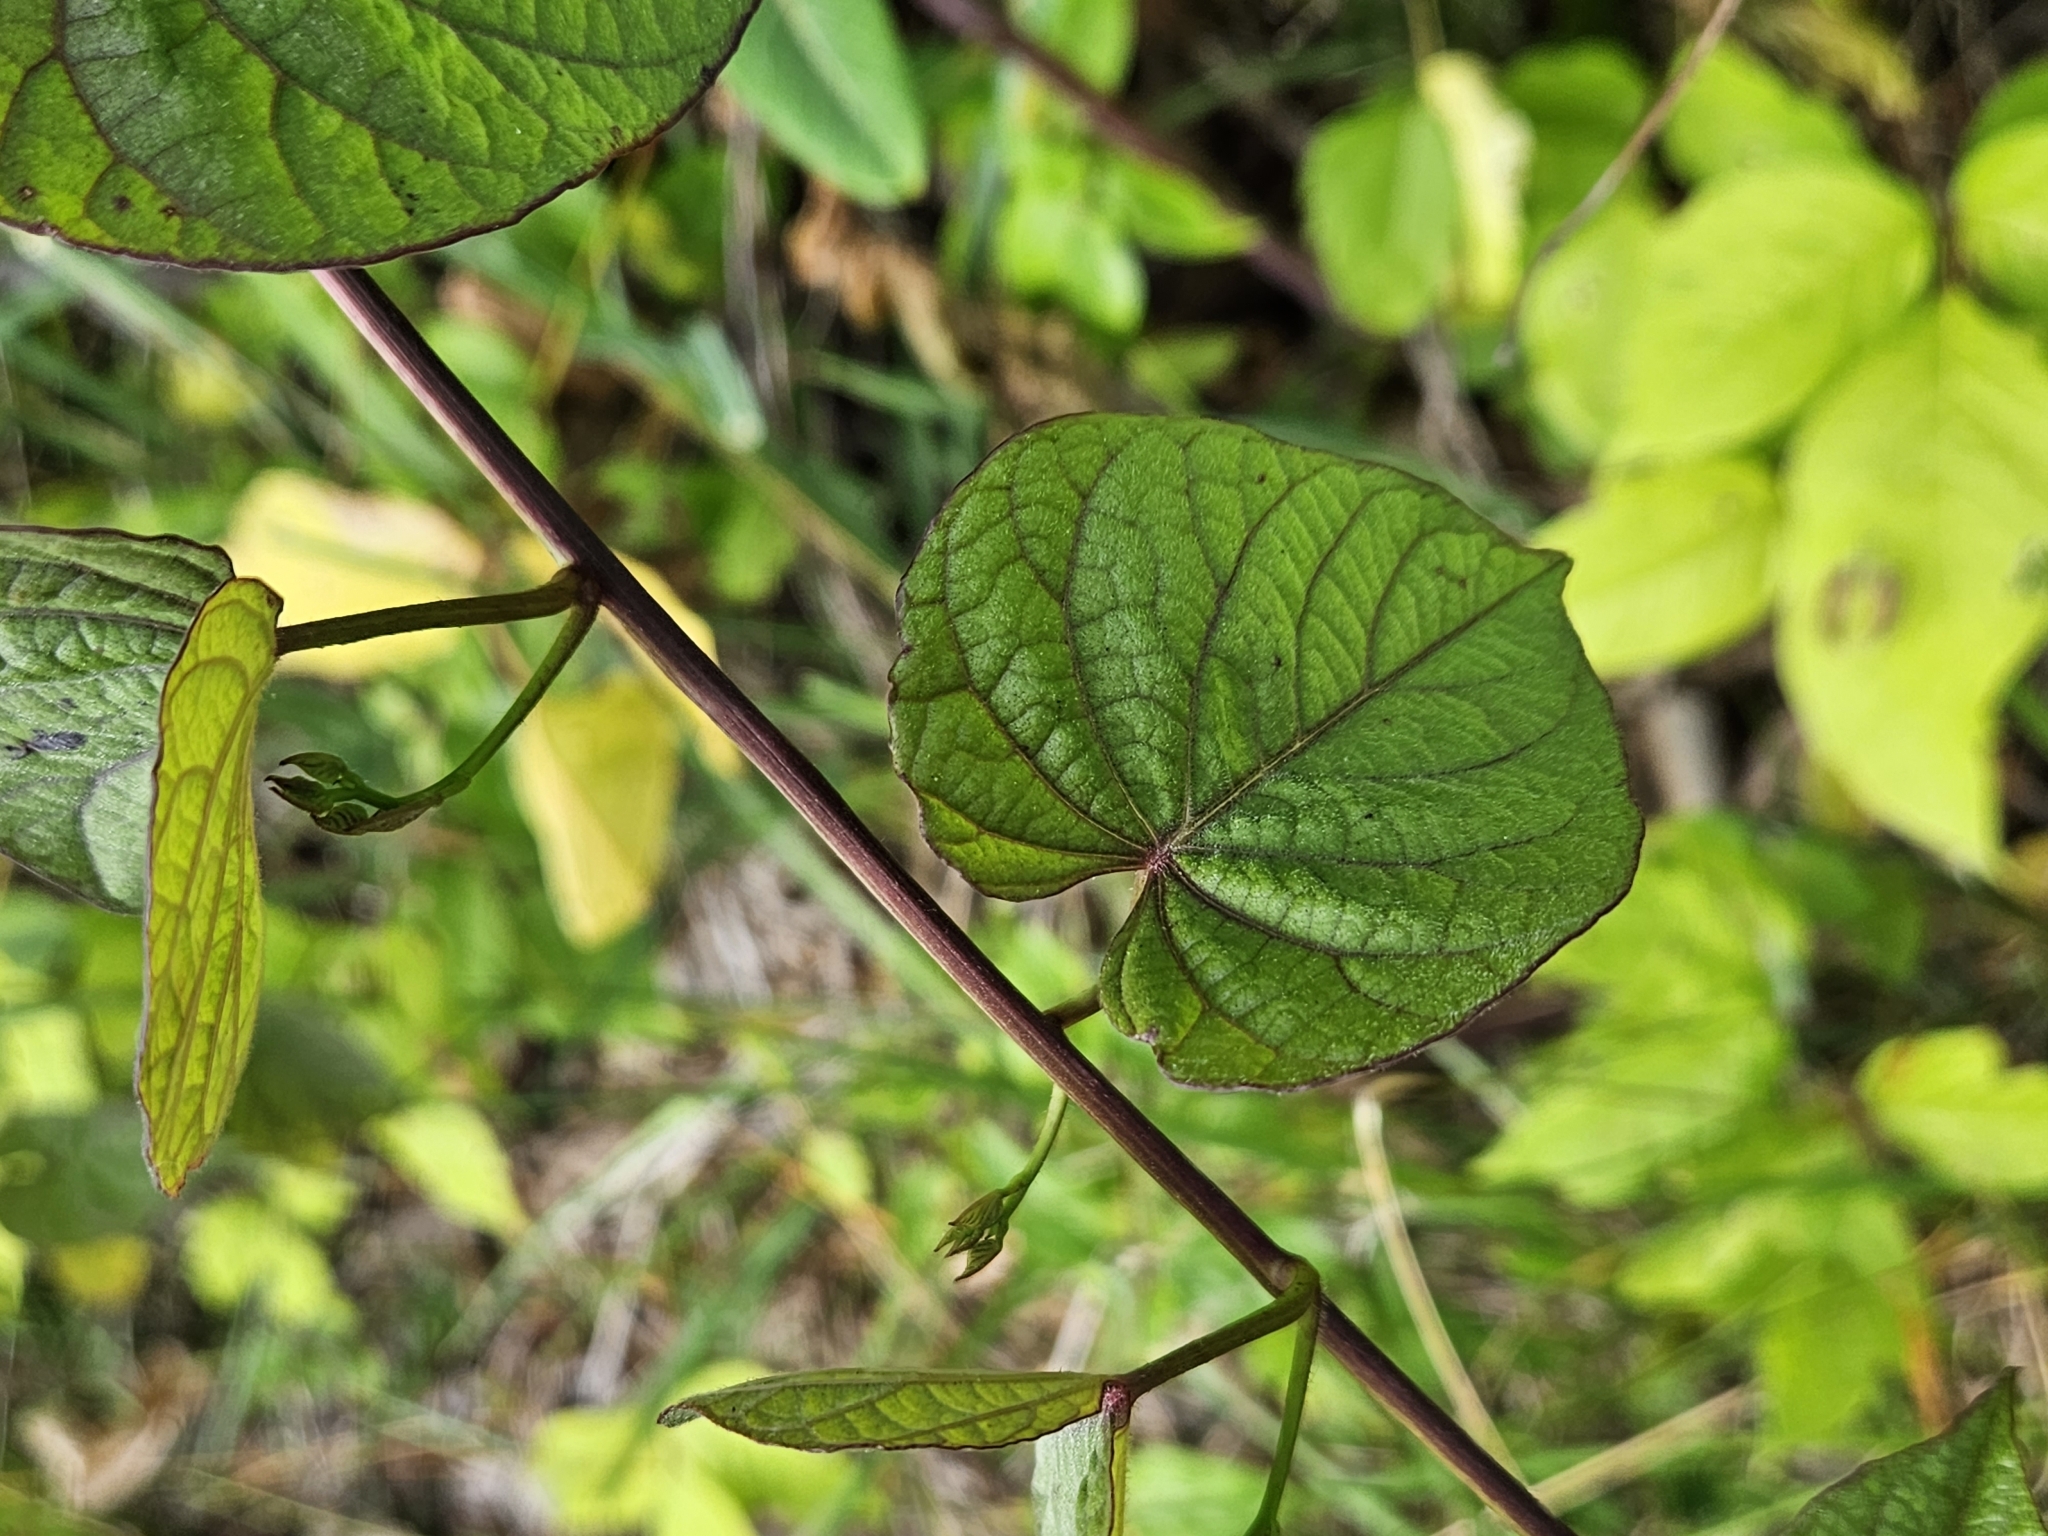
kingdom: Plantae
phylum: Tracheophyta
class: Magnoliopsida
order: Solanales
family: Convolvulaceae
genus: Ipomoea
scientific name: Ipomoea pandurata
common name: Man-of-the-earth
